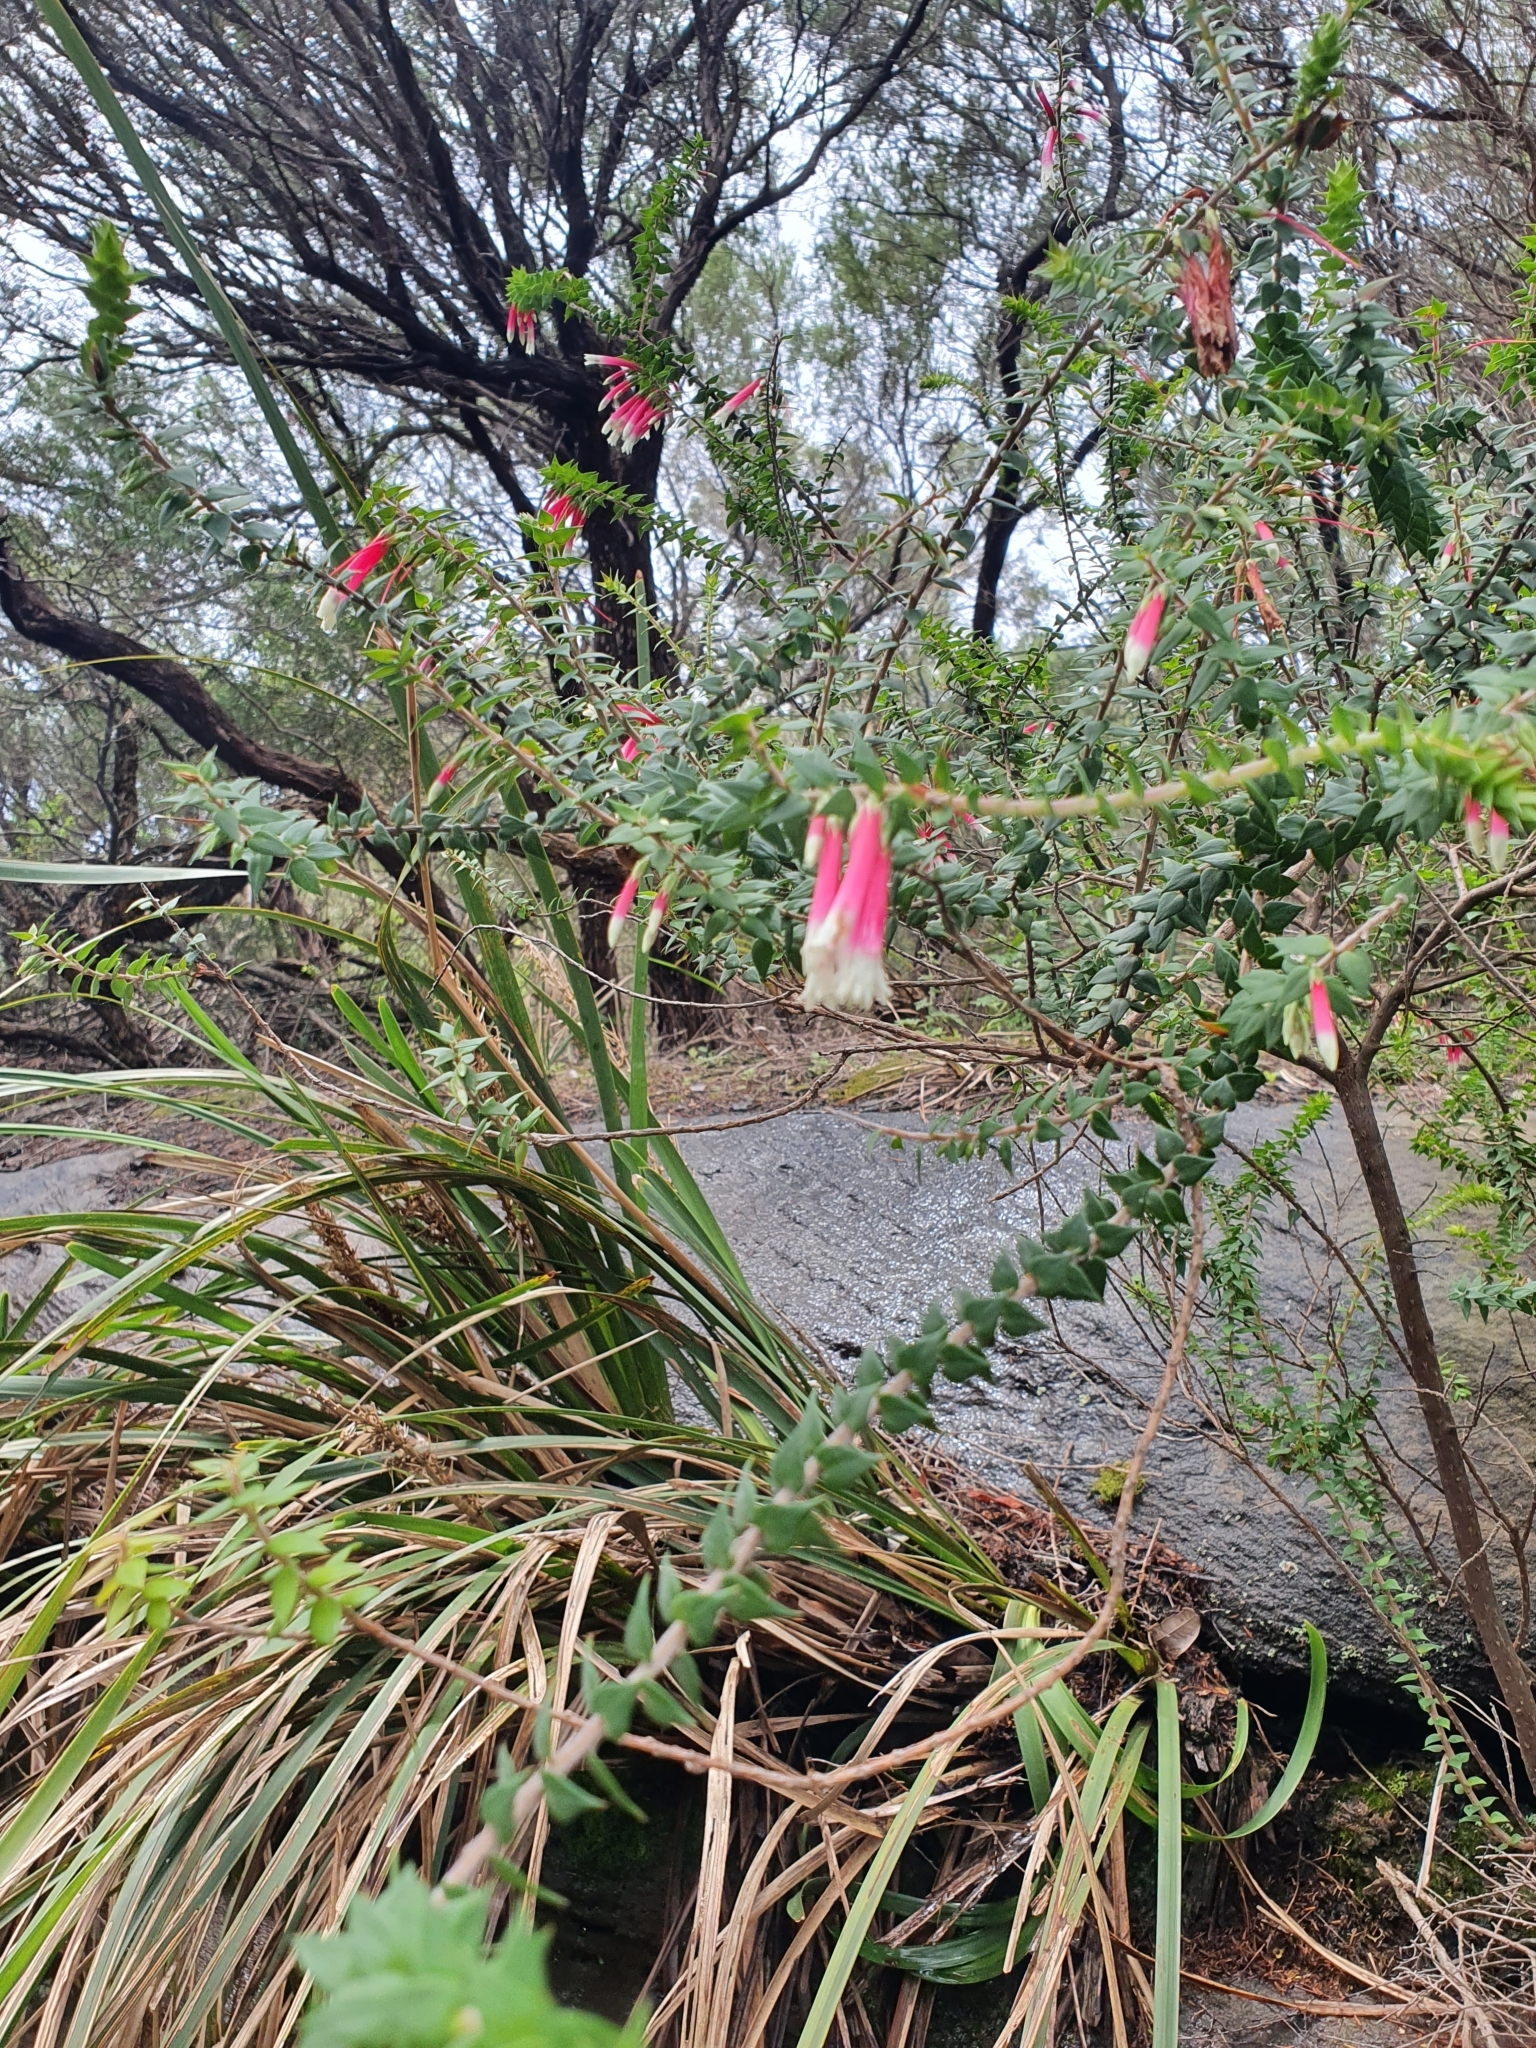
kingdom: Plantae
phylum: Tracheophyta
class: Magnoliopsida
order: Ericales
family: Ericaceae
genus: Epacris
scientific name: Epacris longiflora
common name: Fuchsia-heath
